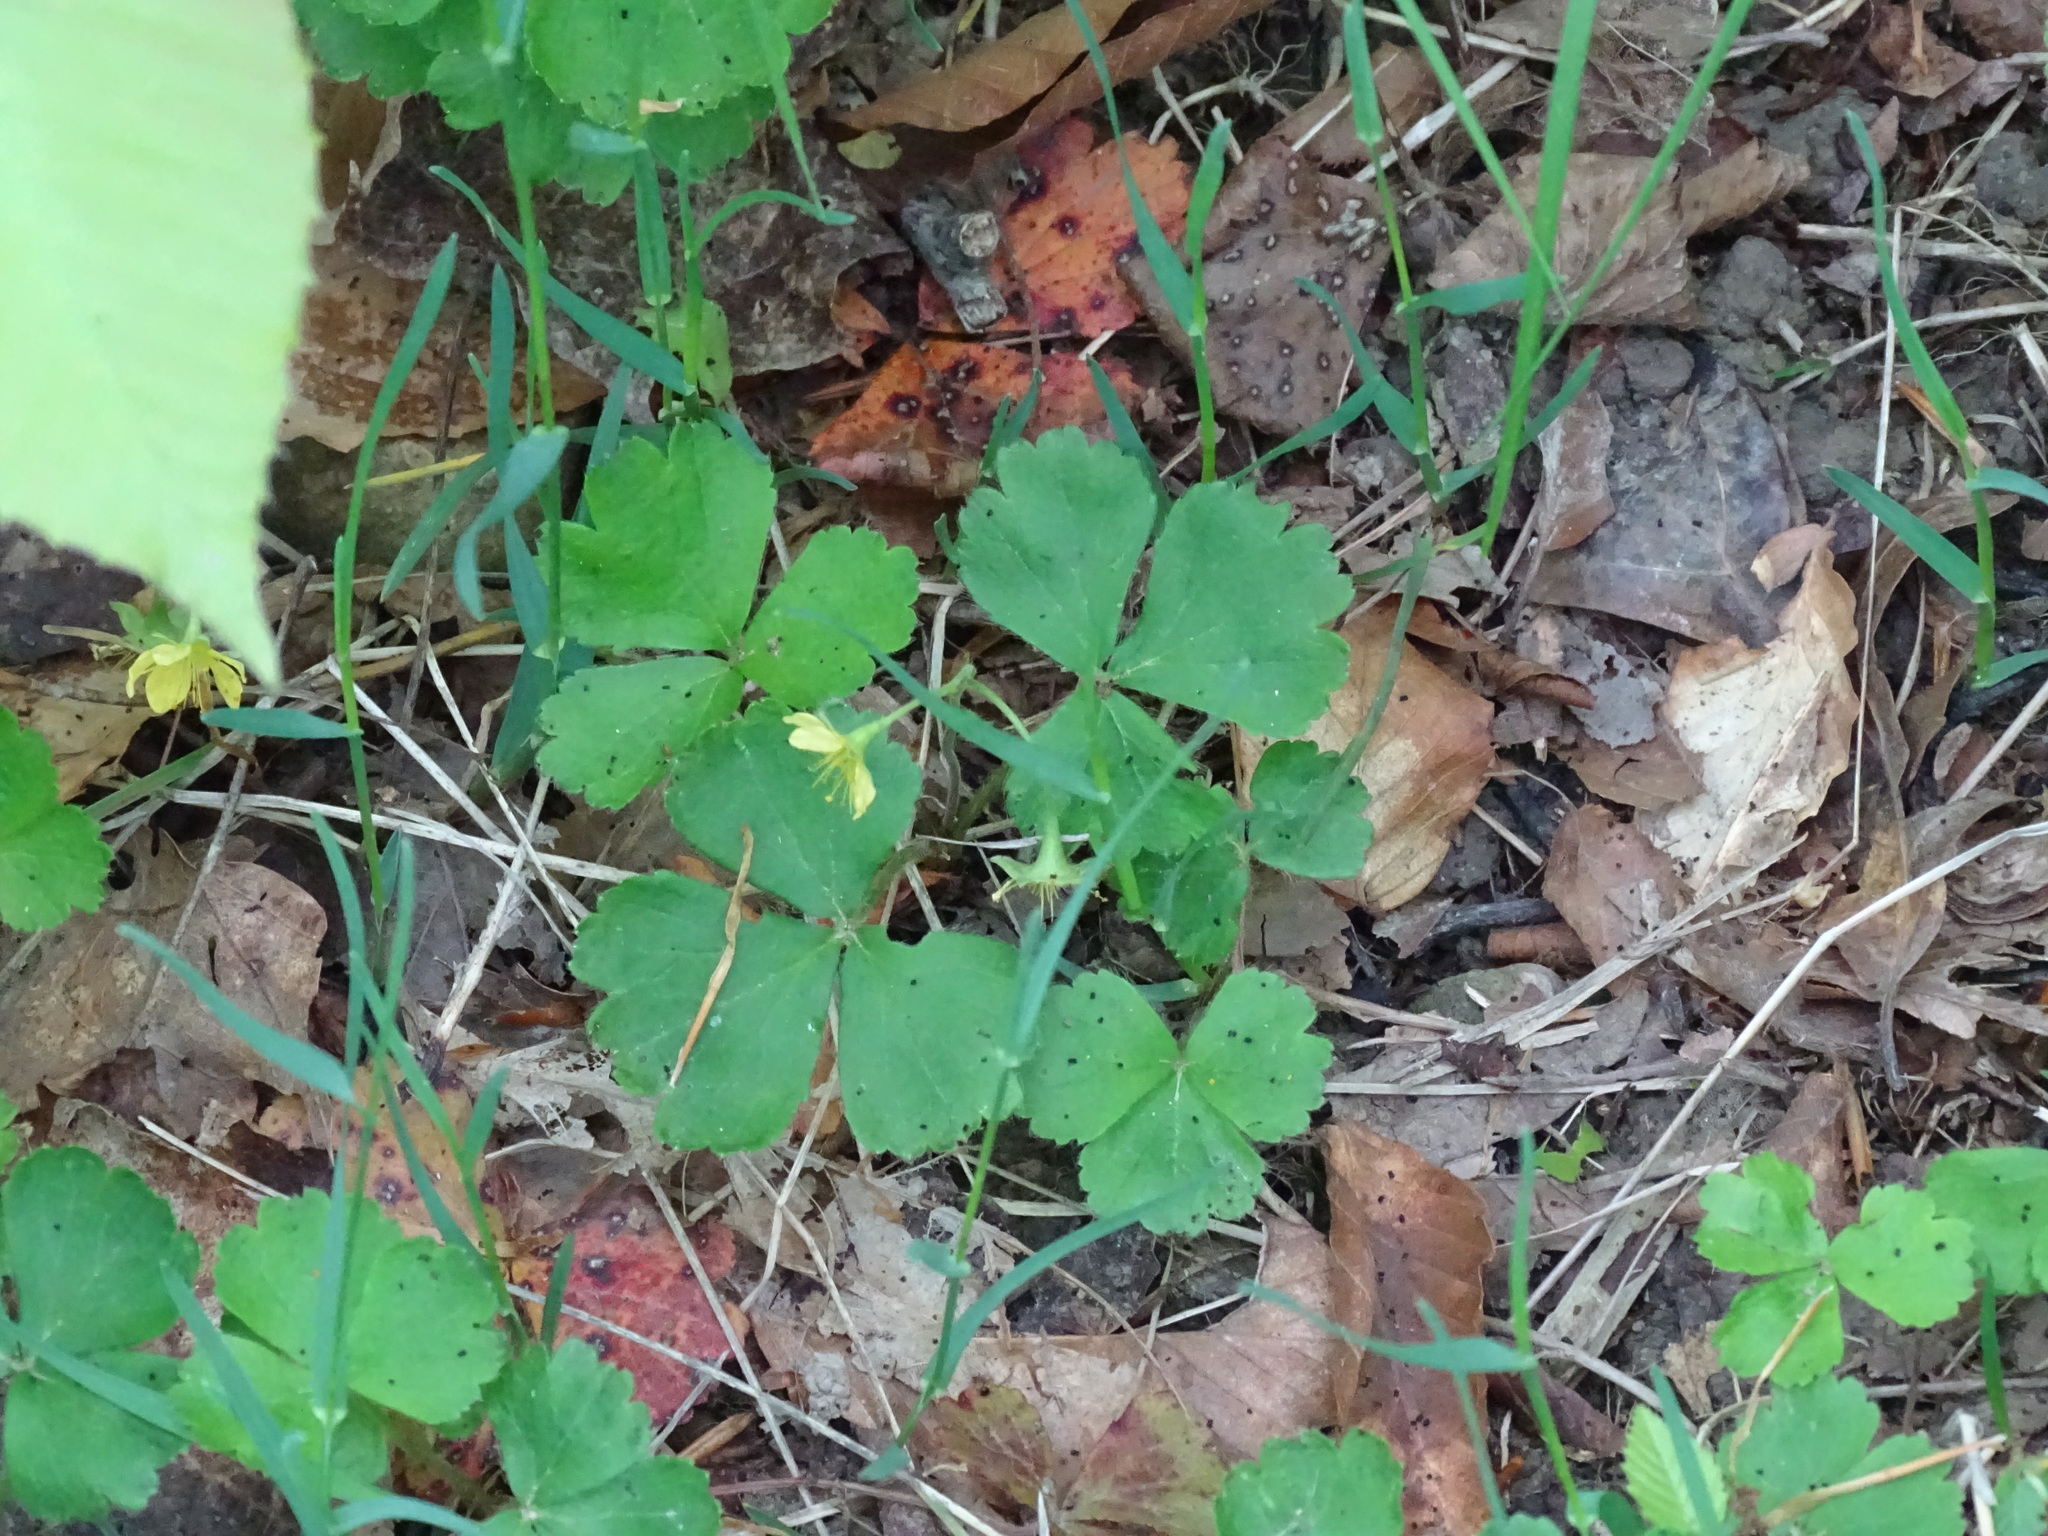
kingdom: Plantae
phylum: Tracheophyta
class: Magnoliopsida
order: Rosales
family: Rosaceae
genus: Geum
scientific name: Geum fragarioides
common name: Appalachian barren strawberry
